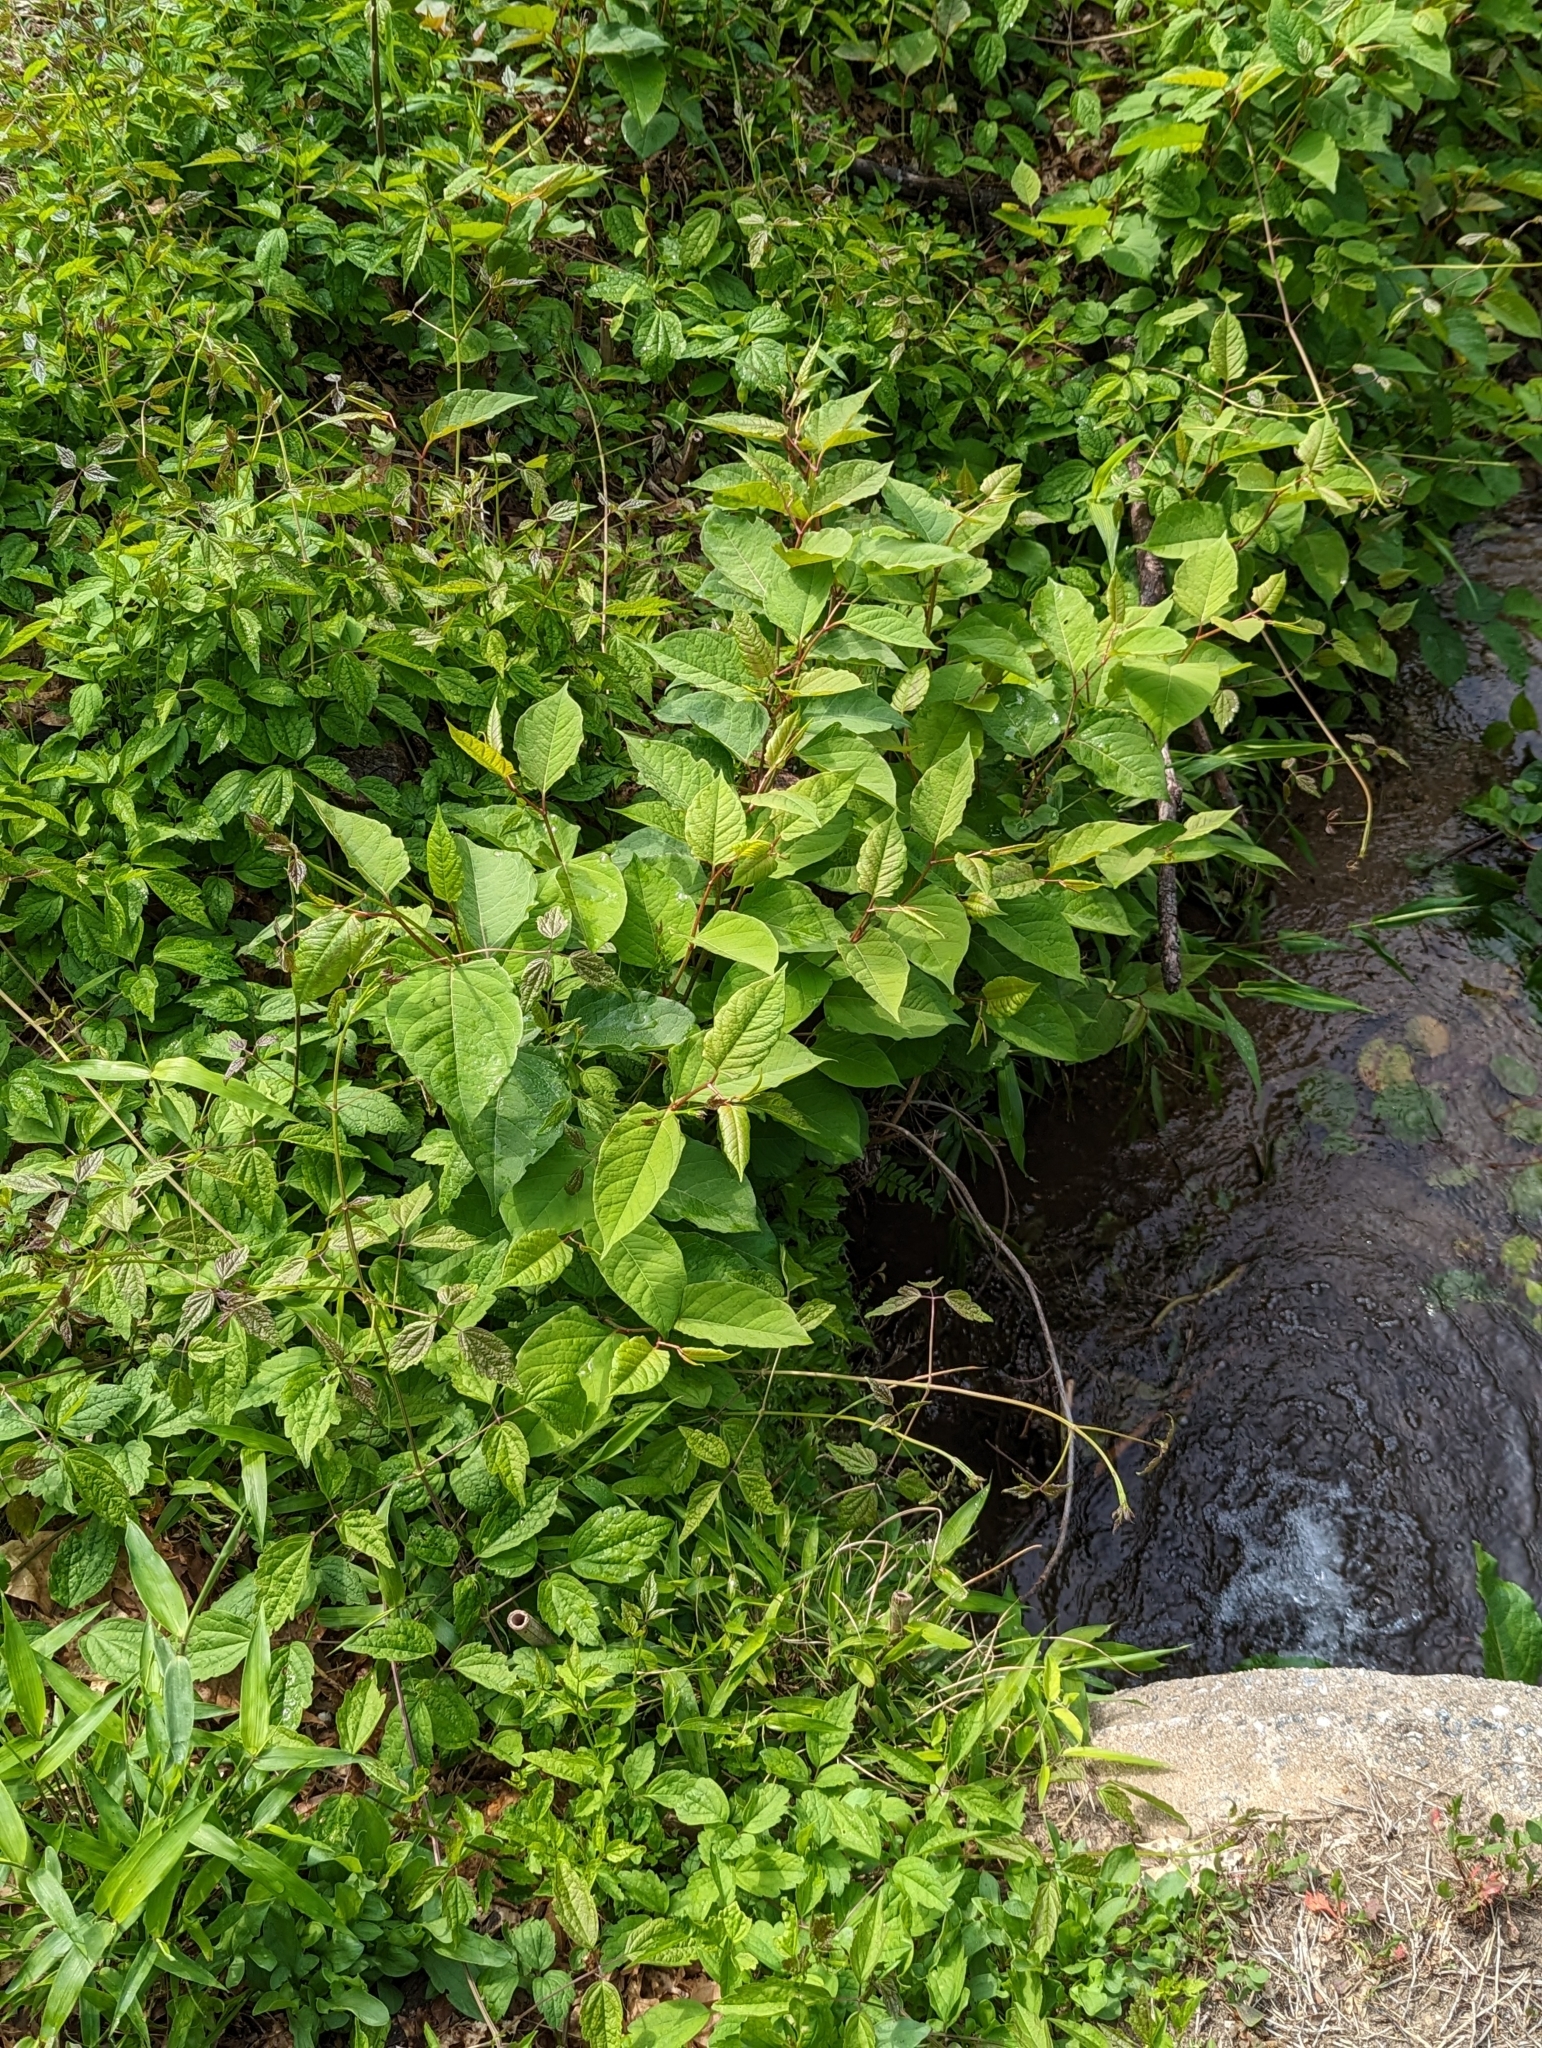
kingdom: Plantae
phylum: Tracheophyta
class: Magnoliopsida
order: Caryophyllales
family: Polygonaceae
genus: Reynoutria
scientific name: Reynoutria japonica
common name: Japanese knotweed
